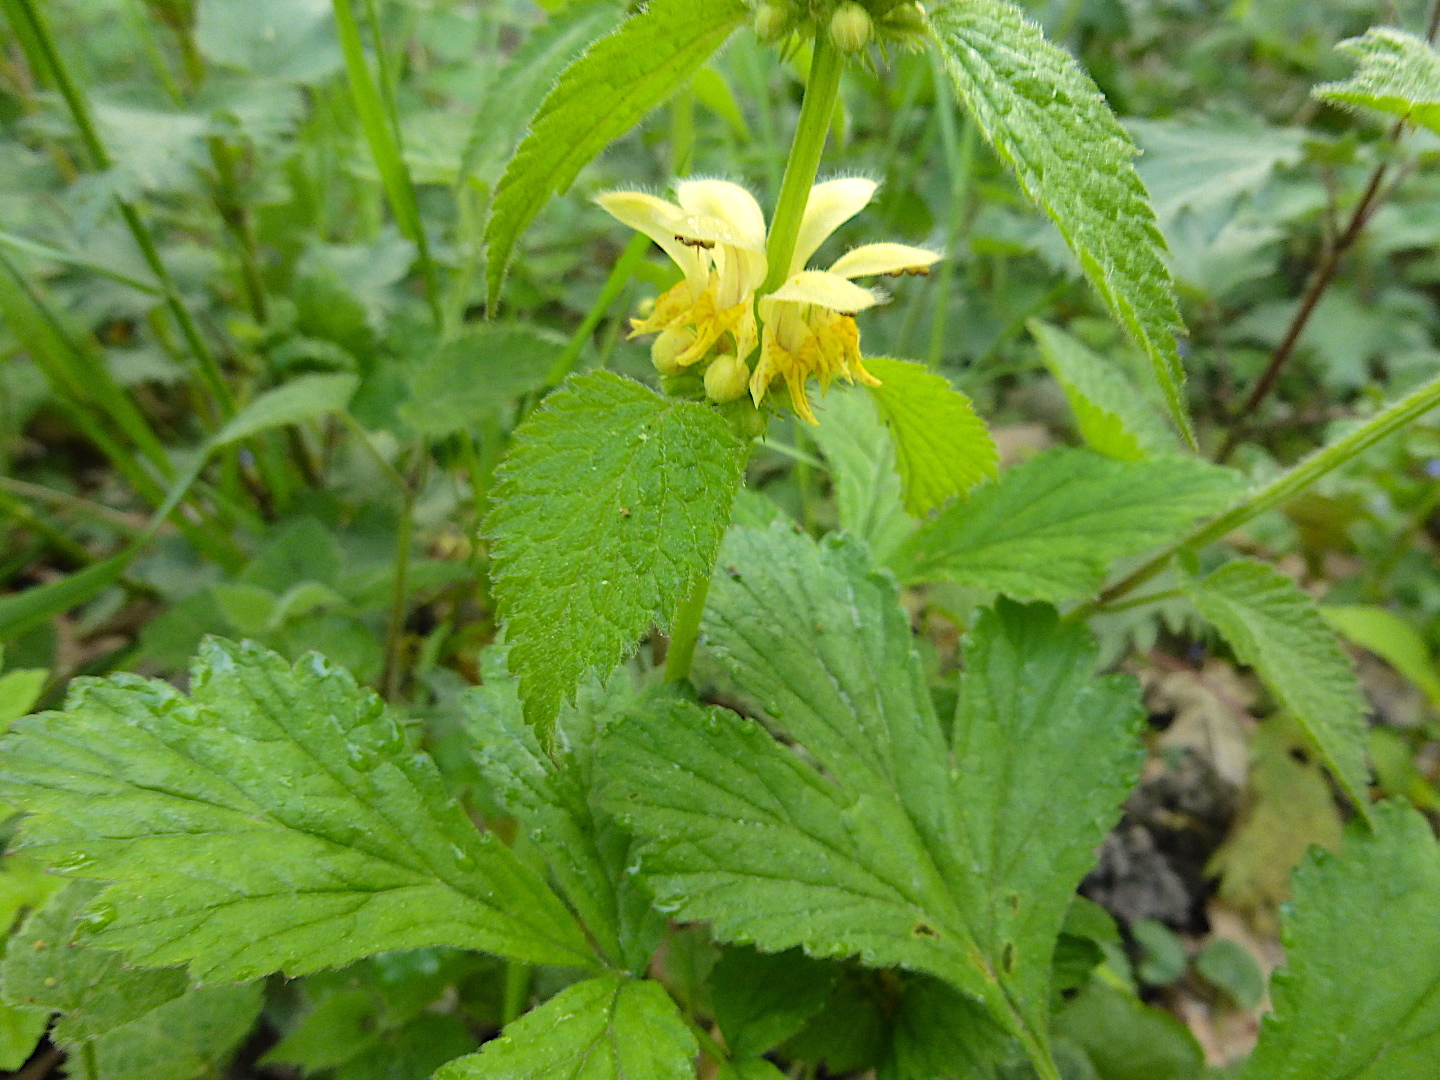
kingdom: Plantae
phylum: Tracheophyta
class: Magnoliopsida
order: Lamiales
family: Lamiaceae
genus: Lamium
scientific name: Lamium galeobdolon
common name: Yellow archangel
